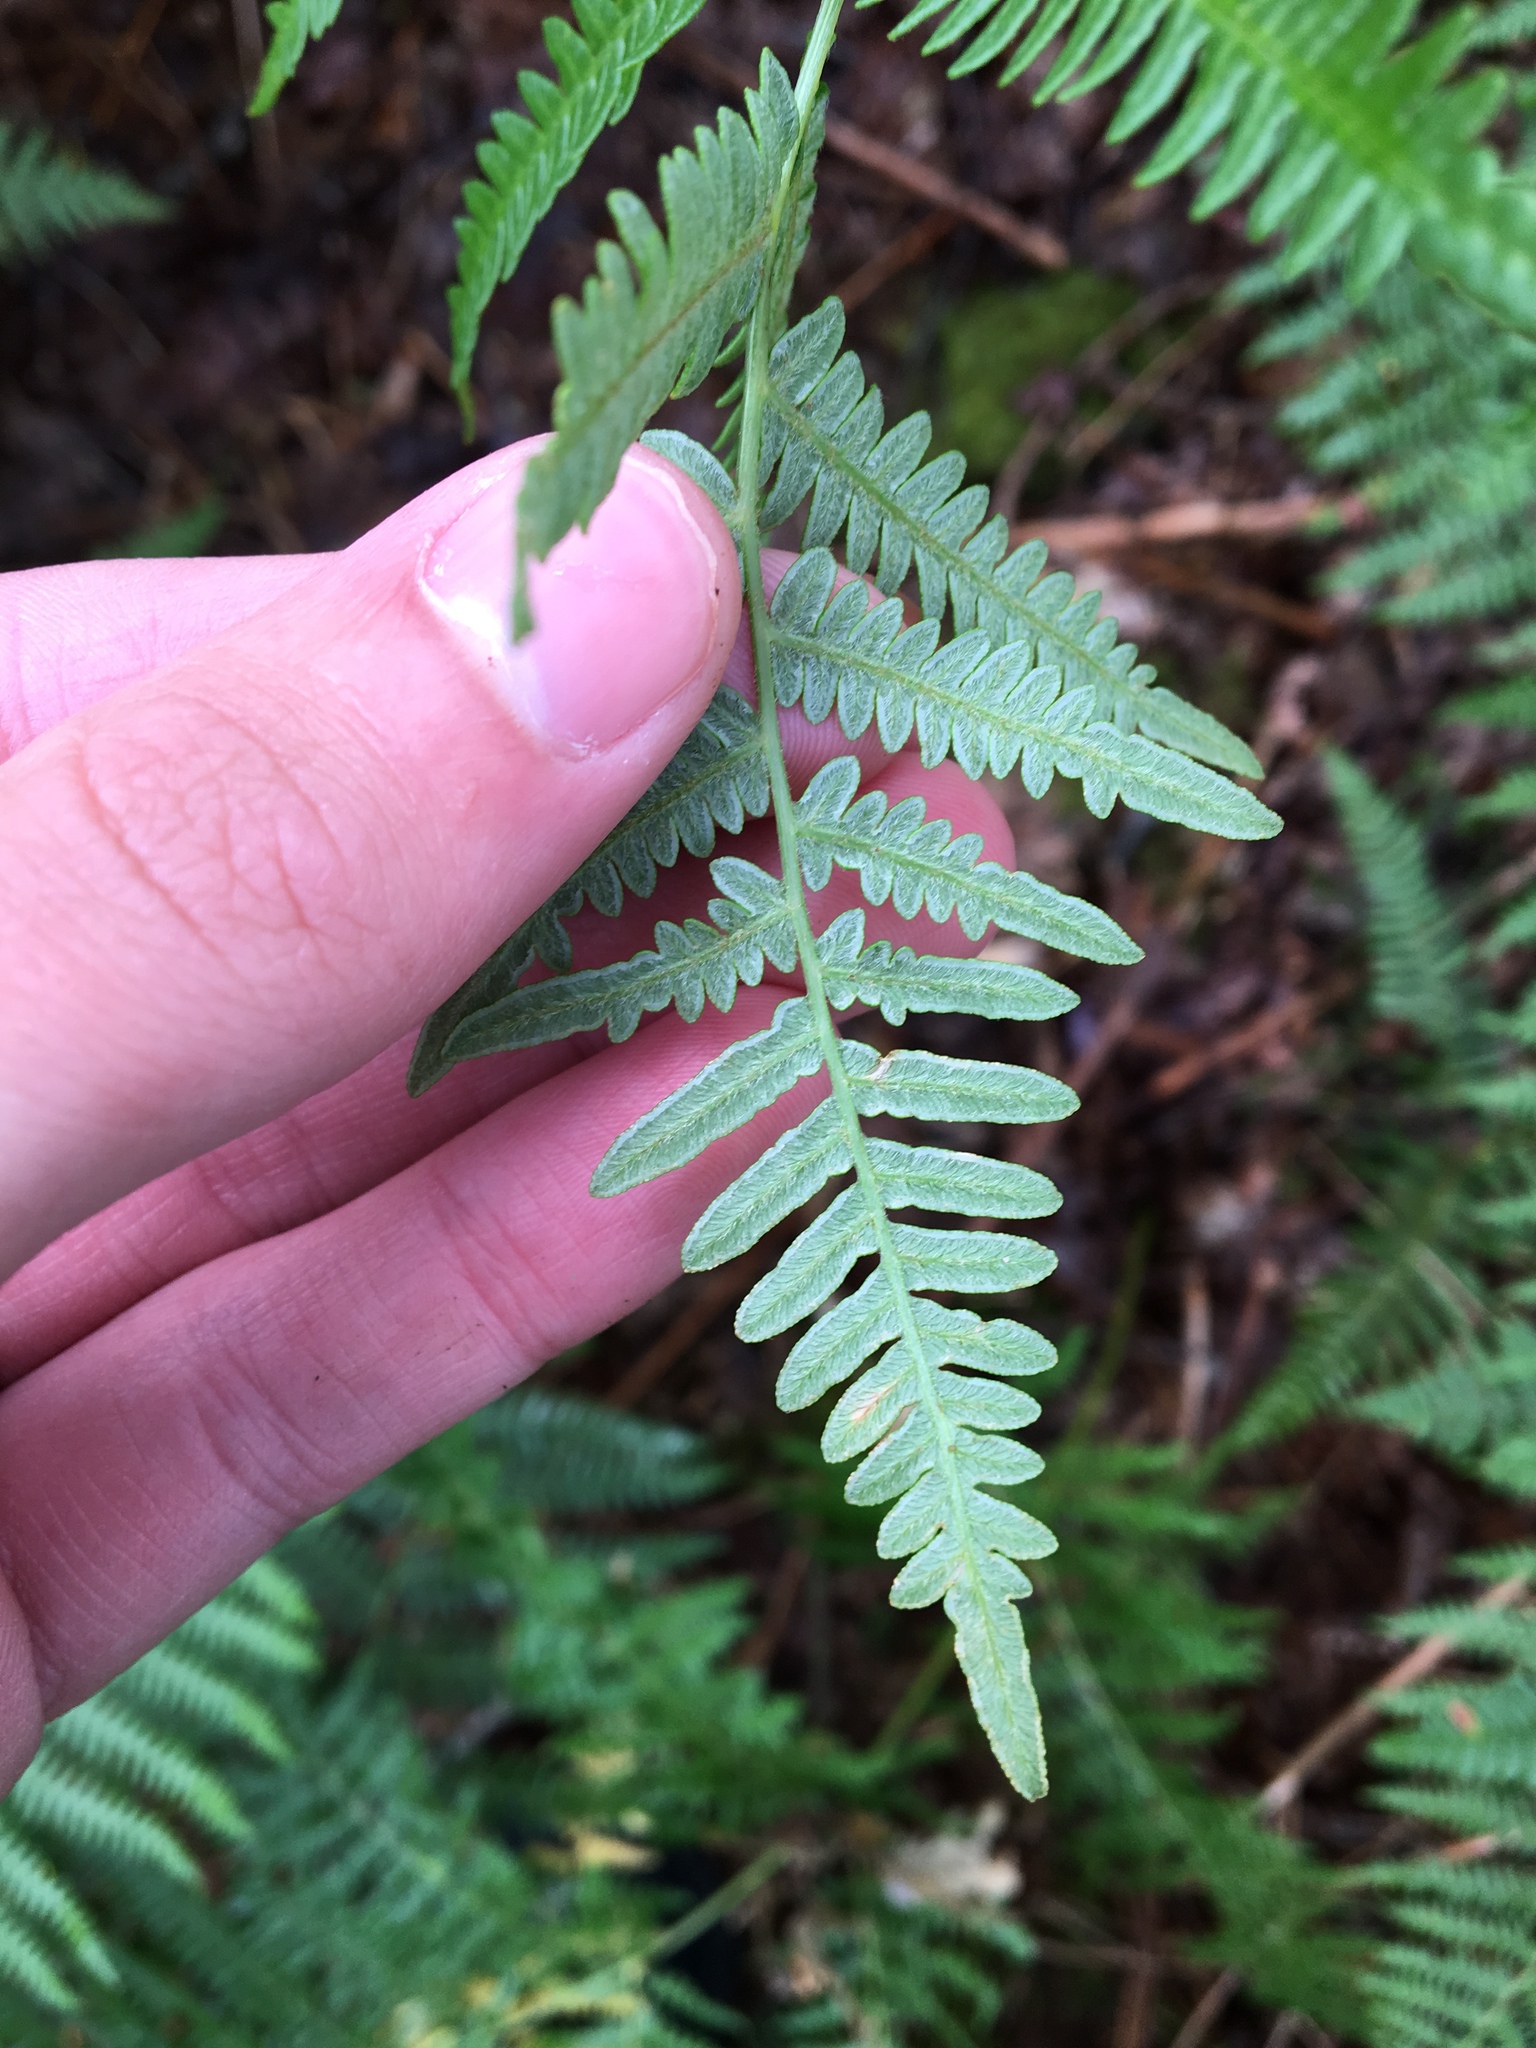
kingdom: Plantae
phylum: Tracheophyta
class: Polypodiopsida
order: Polypodiales
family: Dennstaedtiaceae
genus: Pteridium
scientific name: Pteridium aquilinum
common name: Bracken
